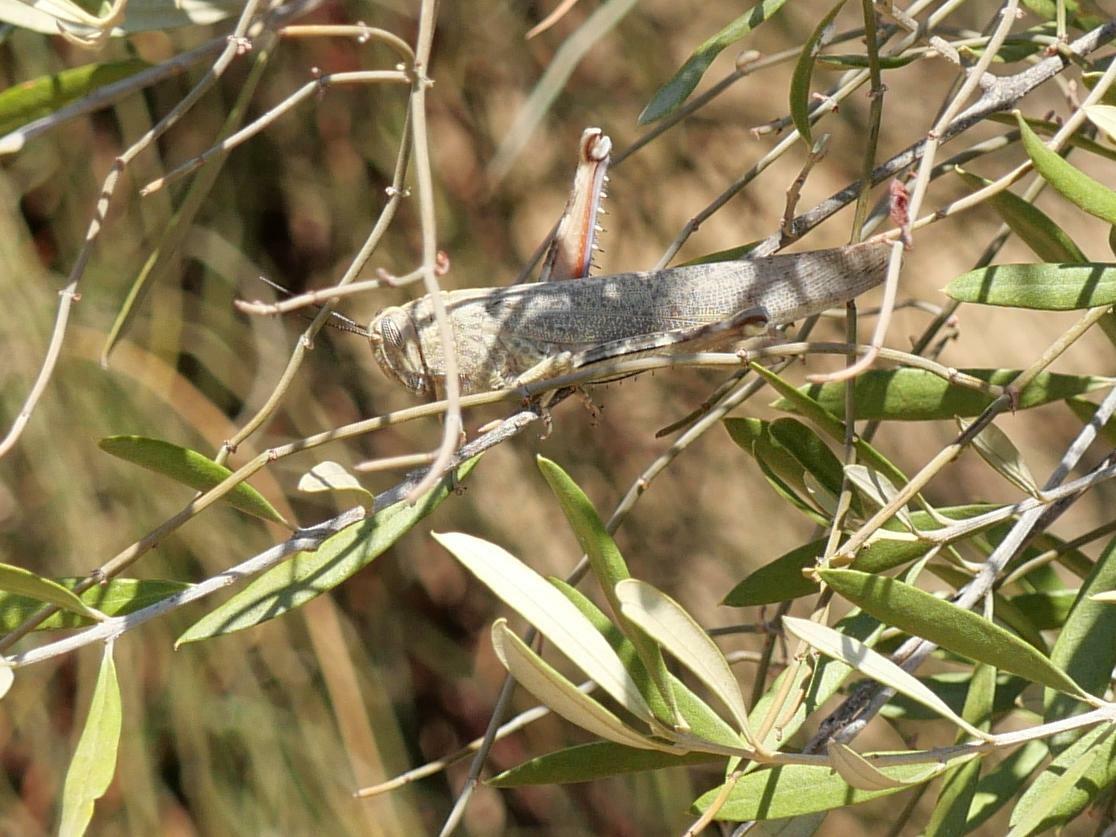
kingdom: Animalia
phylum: Arthropoda
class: Insecta
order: Orthoptera
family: Acrididae
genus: Anacridium
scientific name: Anacridium aegyptium
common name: Egyptian grasshopper
